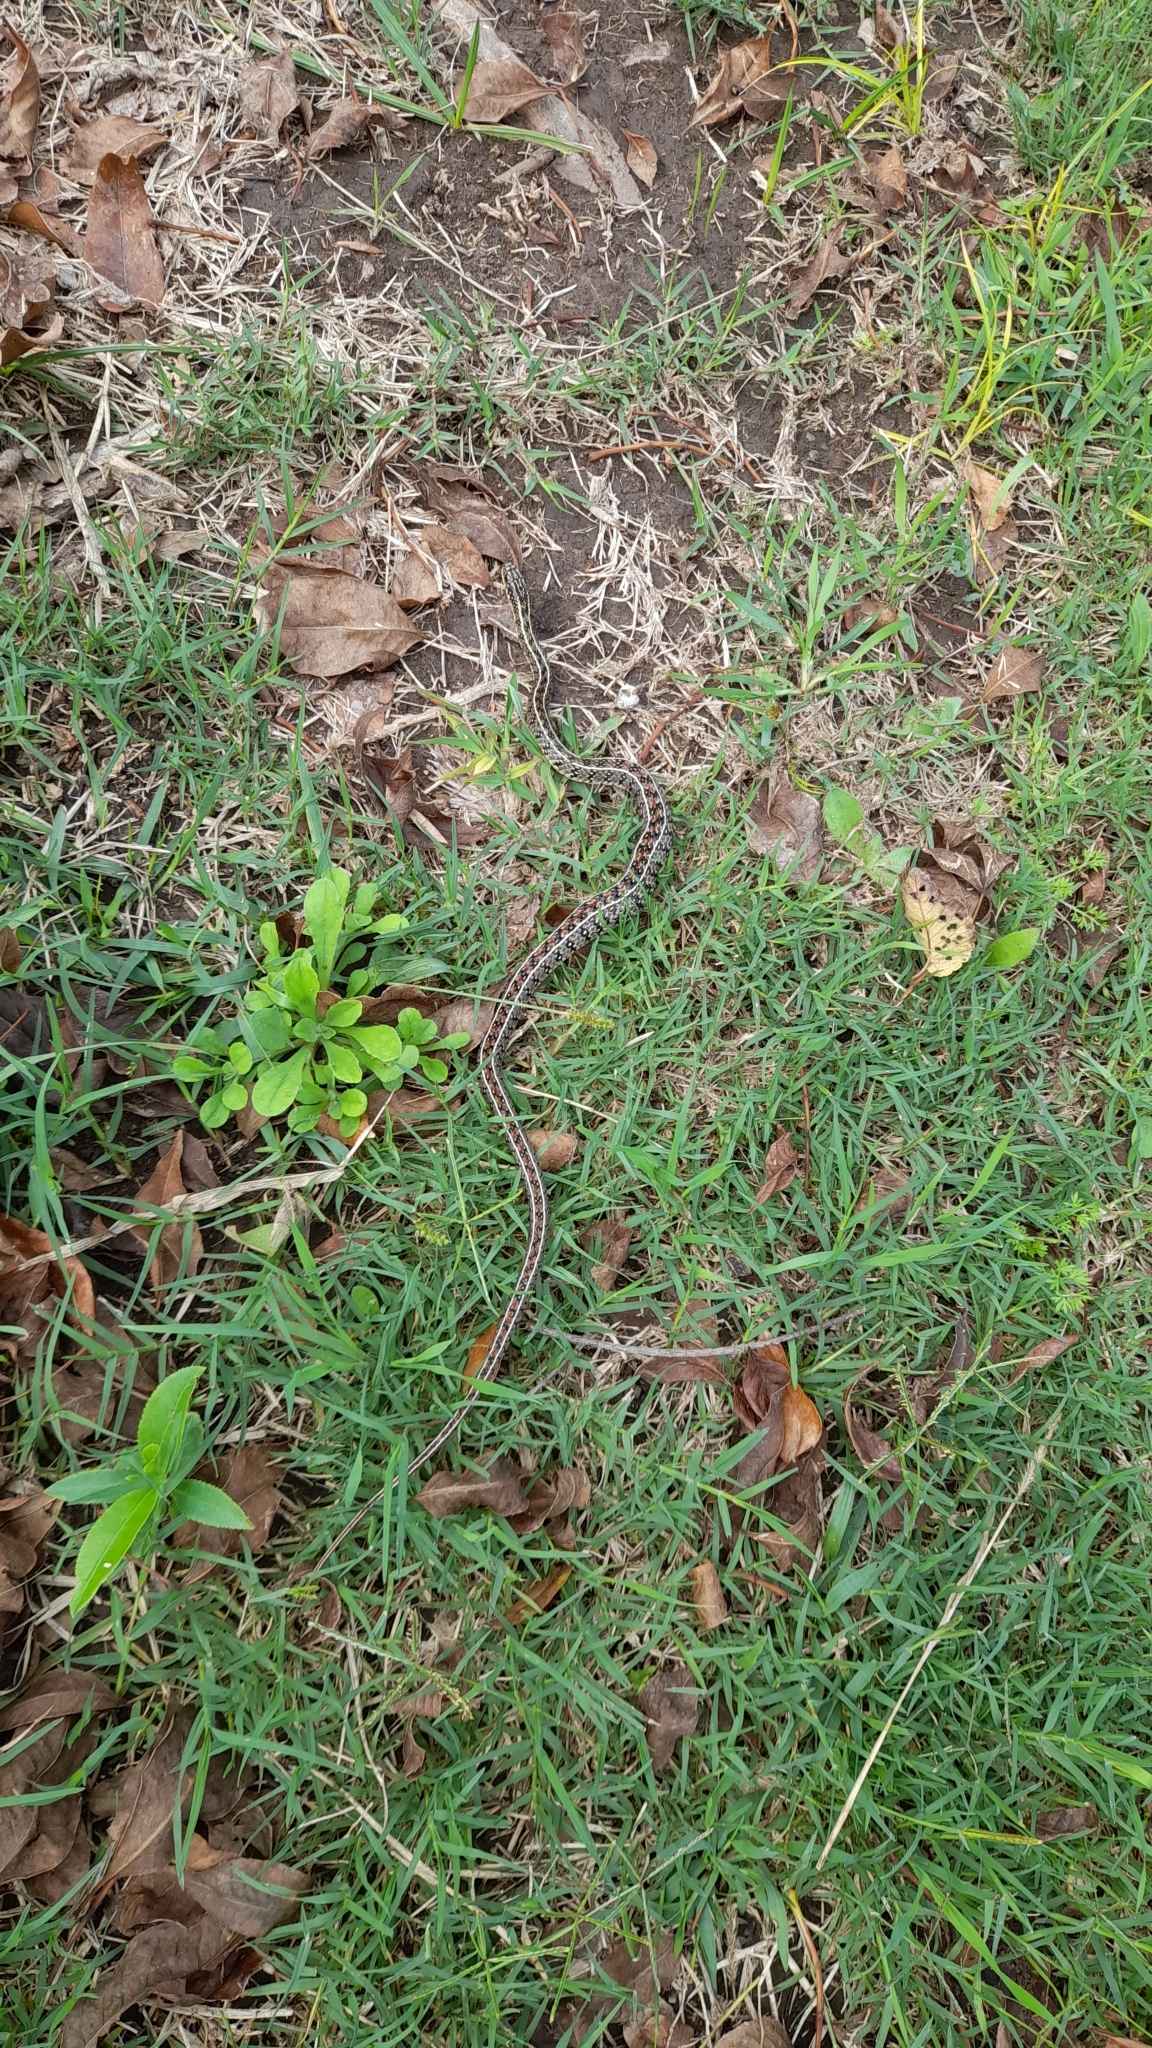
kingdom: Animalia
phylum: Chordata
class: Squamata
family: Colubridae
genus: Lygophis
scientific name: Lygophis anomalus
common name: English common name not available
